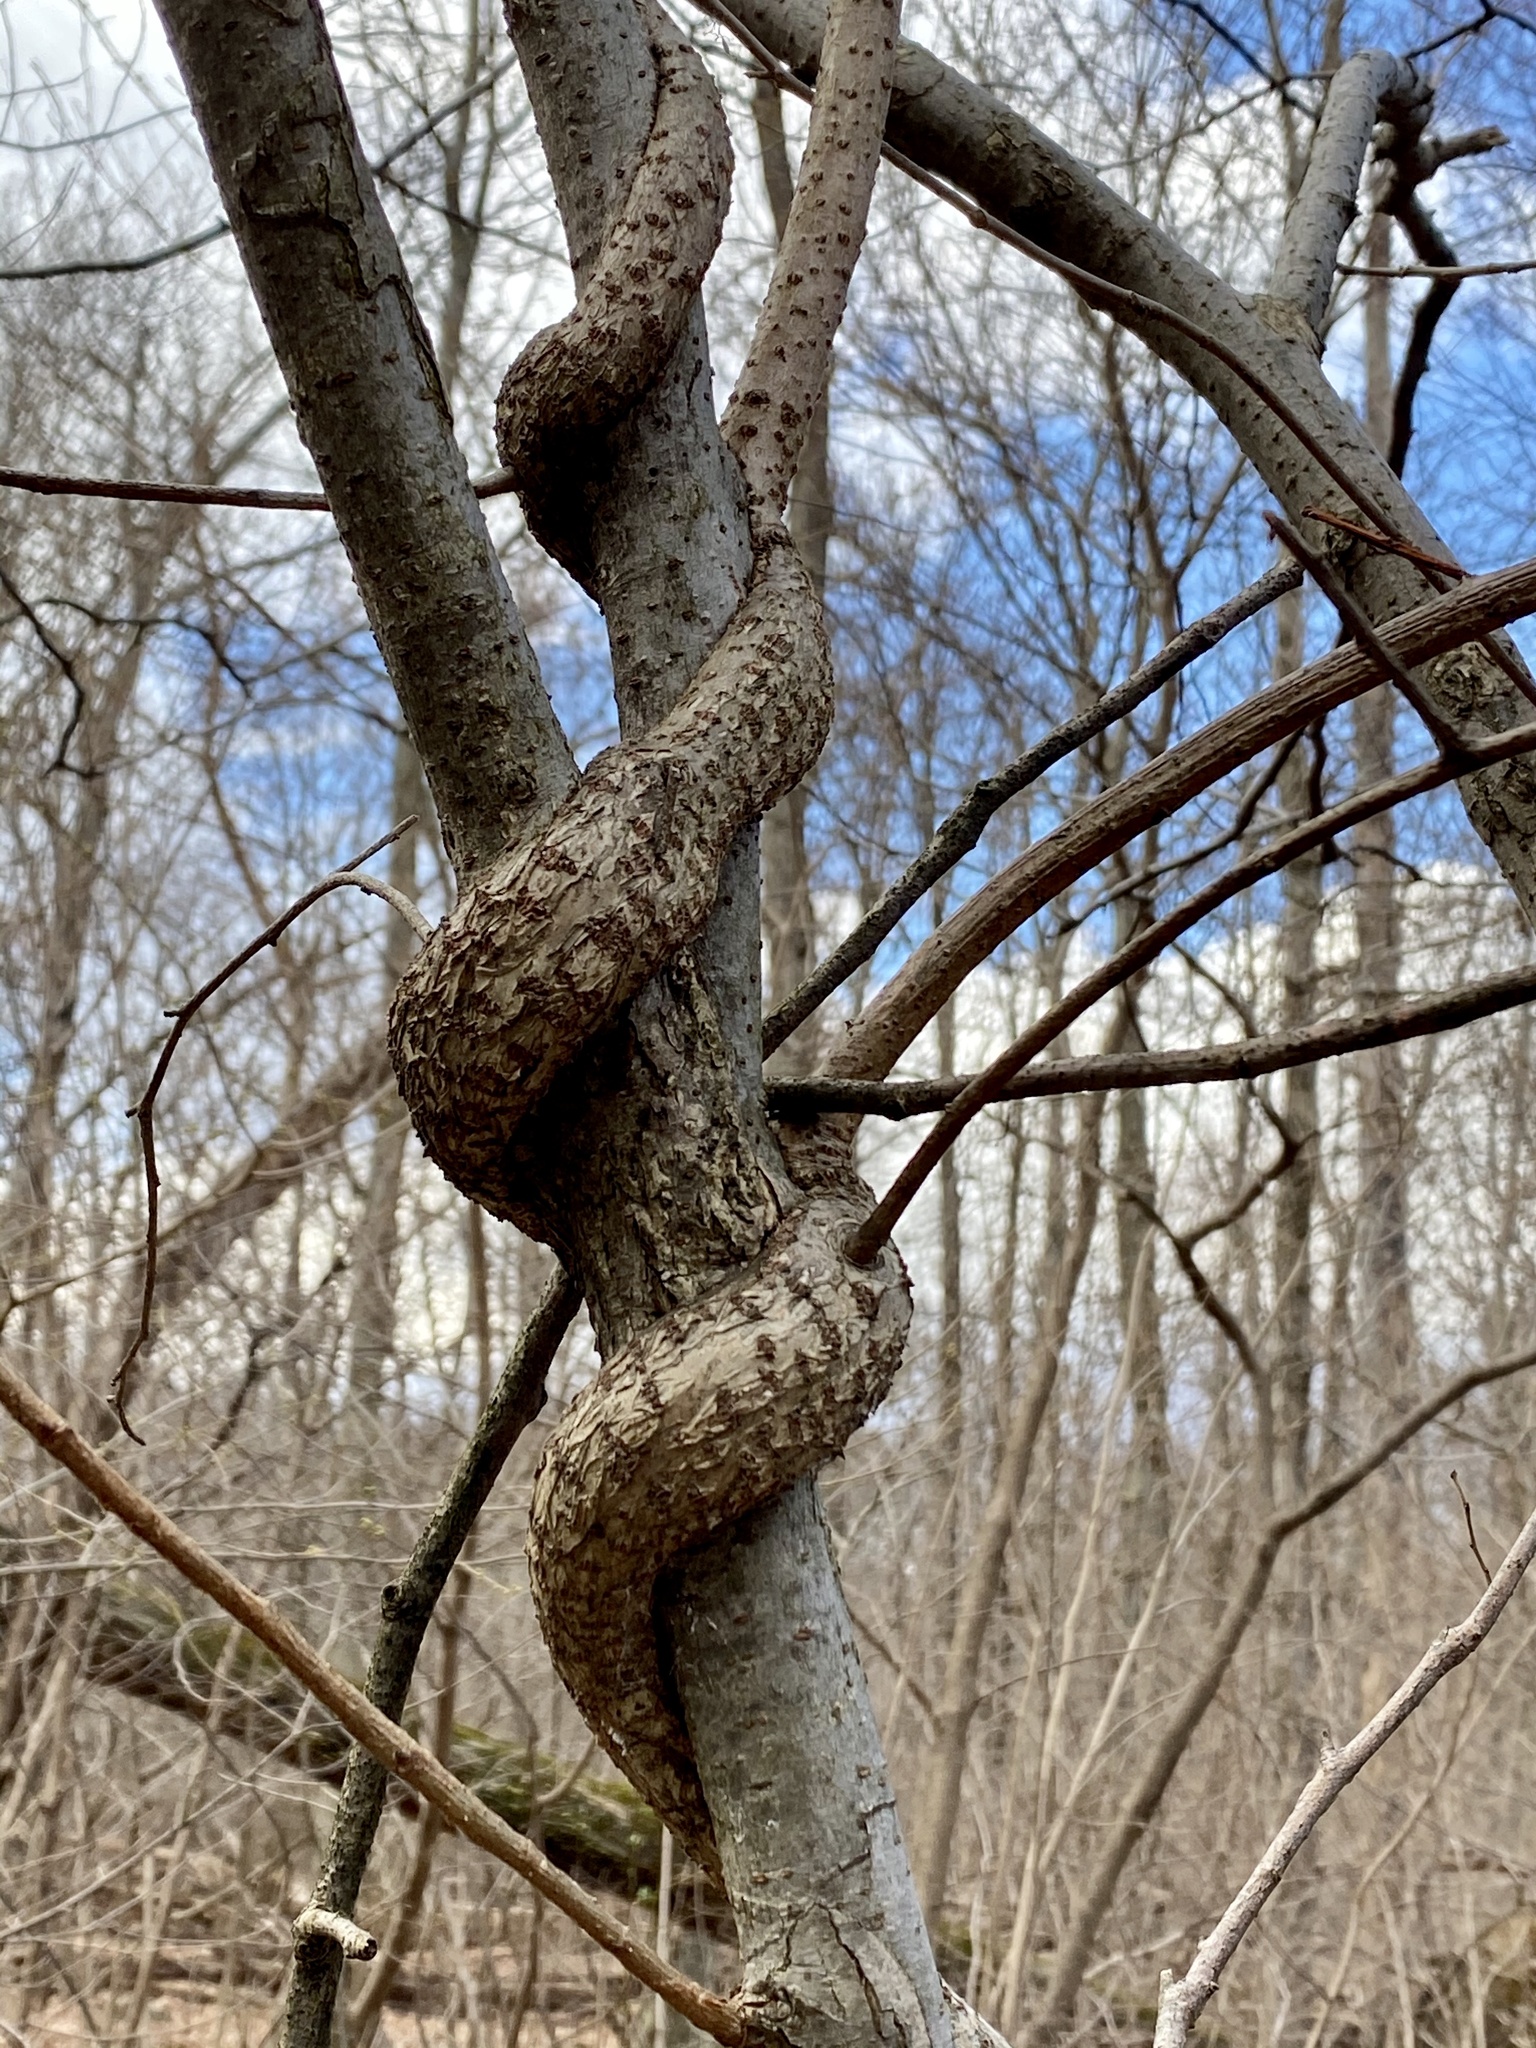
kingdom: Plantae
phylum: Tracheophyta
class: Magnoliopsida
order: Celastrales
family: Celastraceae
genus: Celastrus
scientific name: Celastrus orbiculatus
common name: Oriental bittersweet
